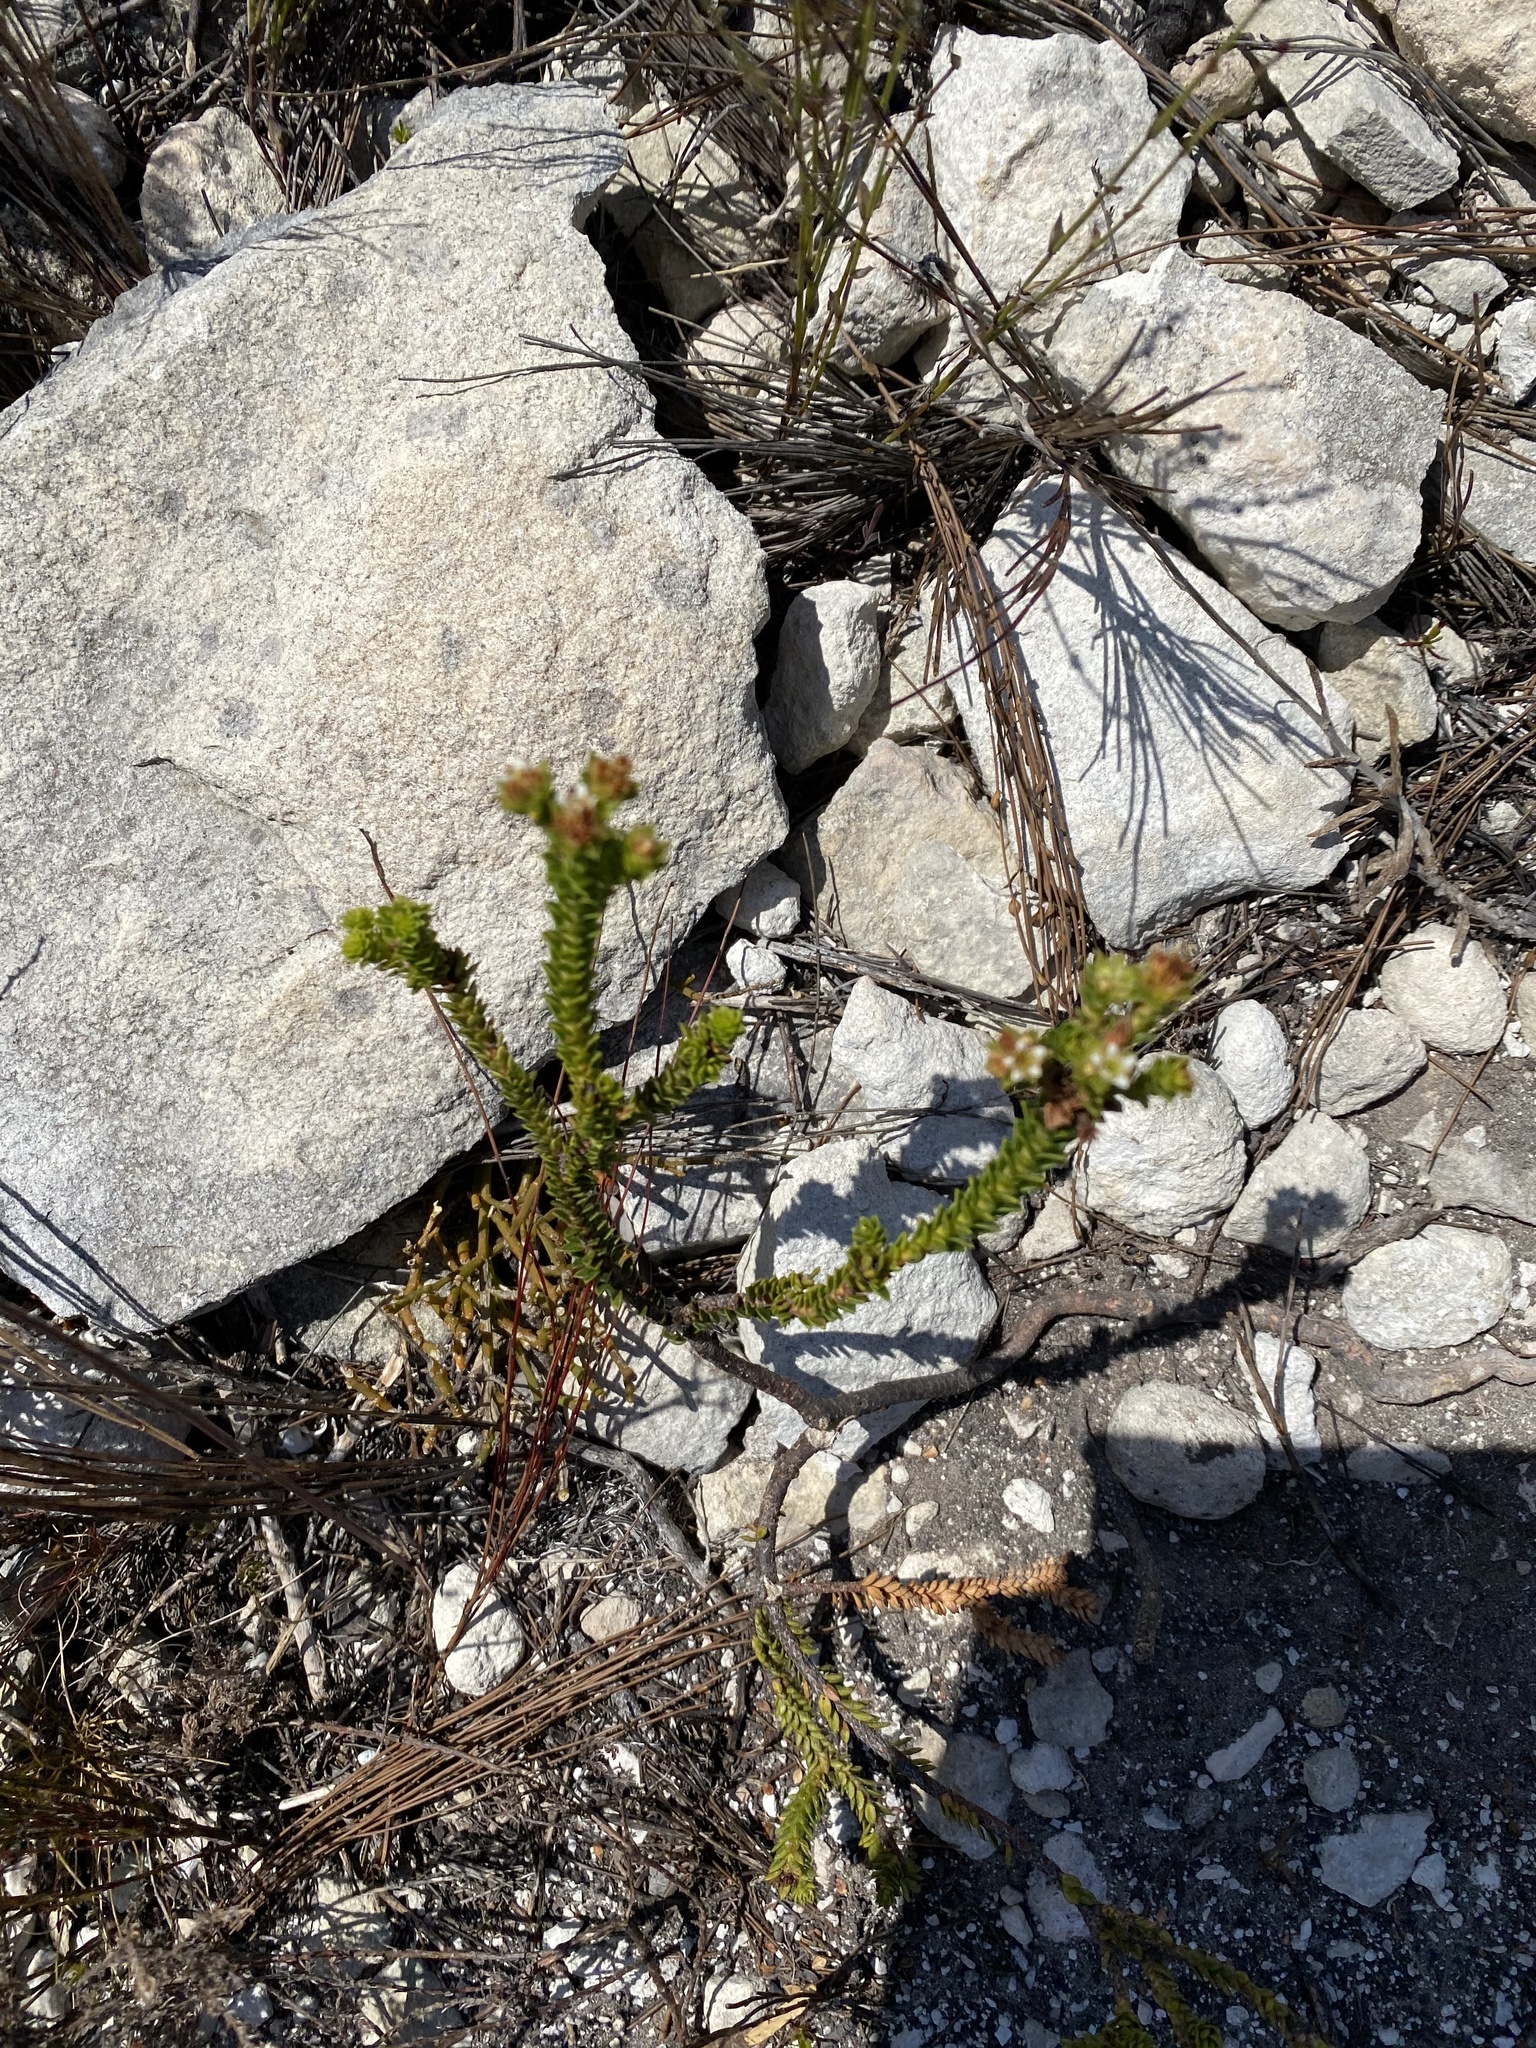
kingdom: Plantae
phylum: Tracheophyta
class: Magnoliopsida
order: Sapindales
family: Rutaceae
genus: Diosma
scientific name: Diosma echinulata
